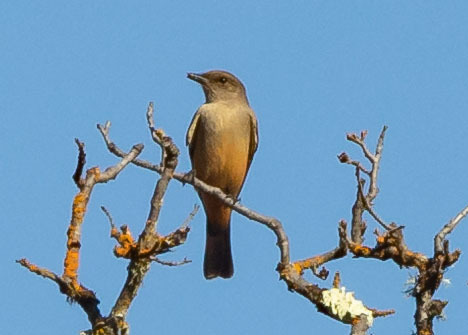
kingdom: Animalia
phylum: Chordata
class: Aves
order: Passeriformes
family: Tyrannidae
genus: Sayornis
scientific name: Sayornis saya
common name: Say's phoebe
